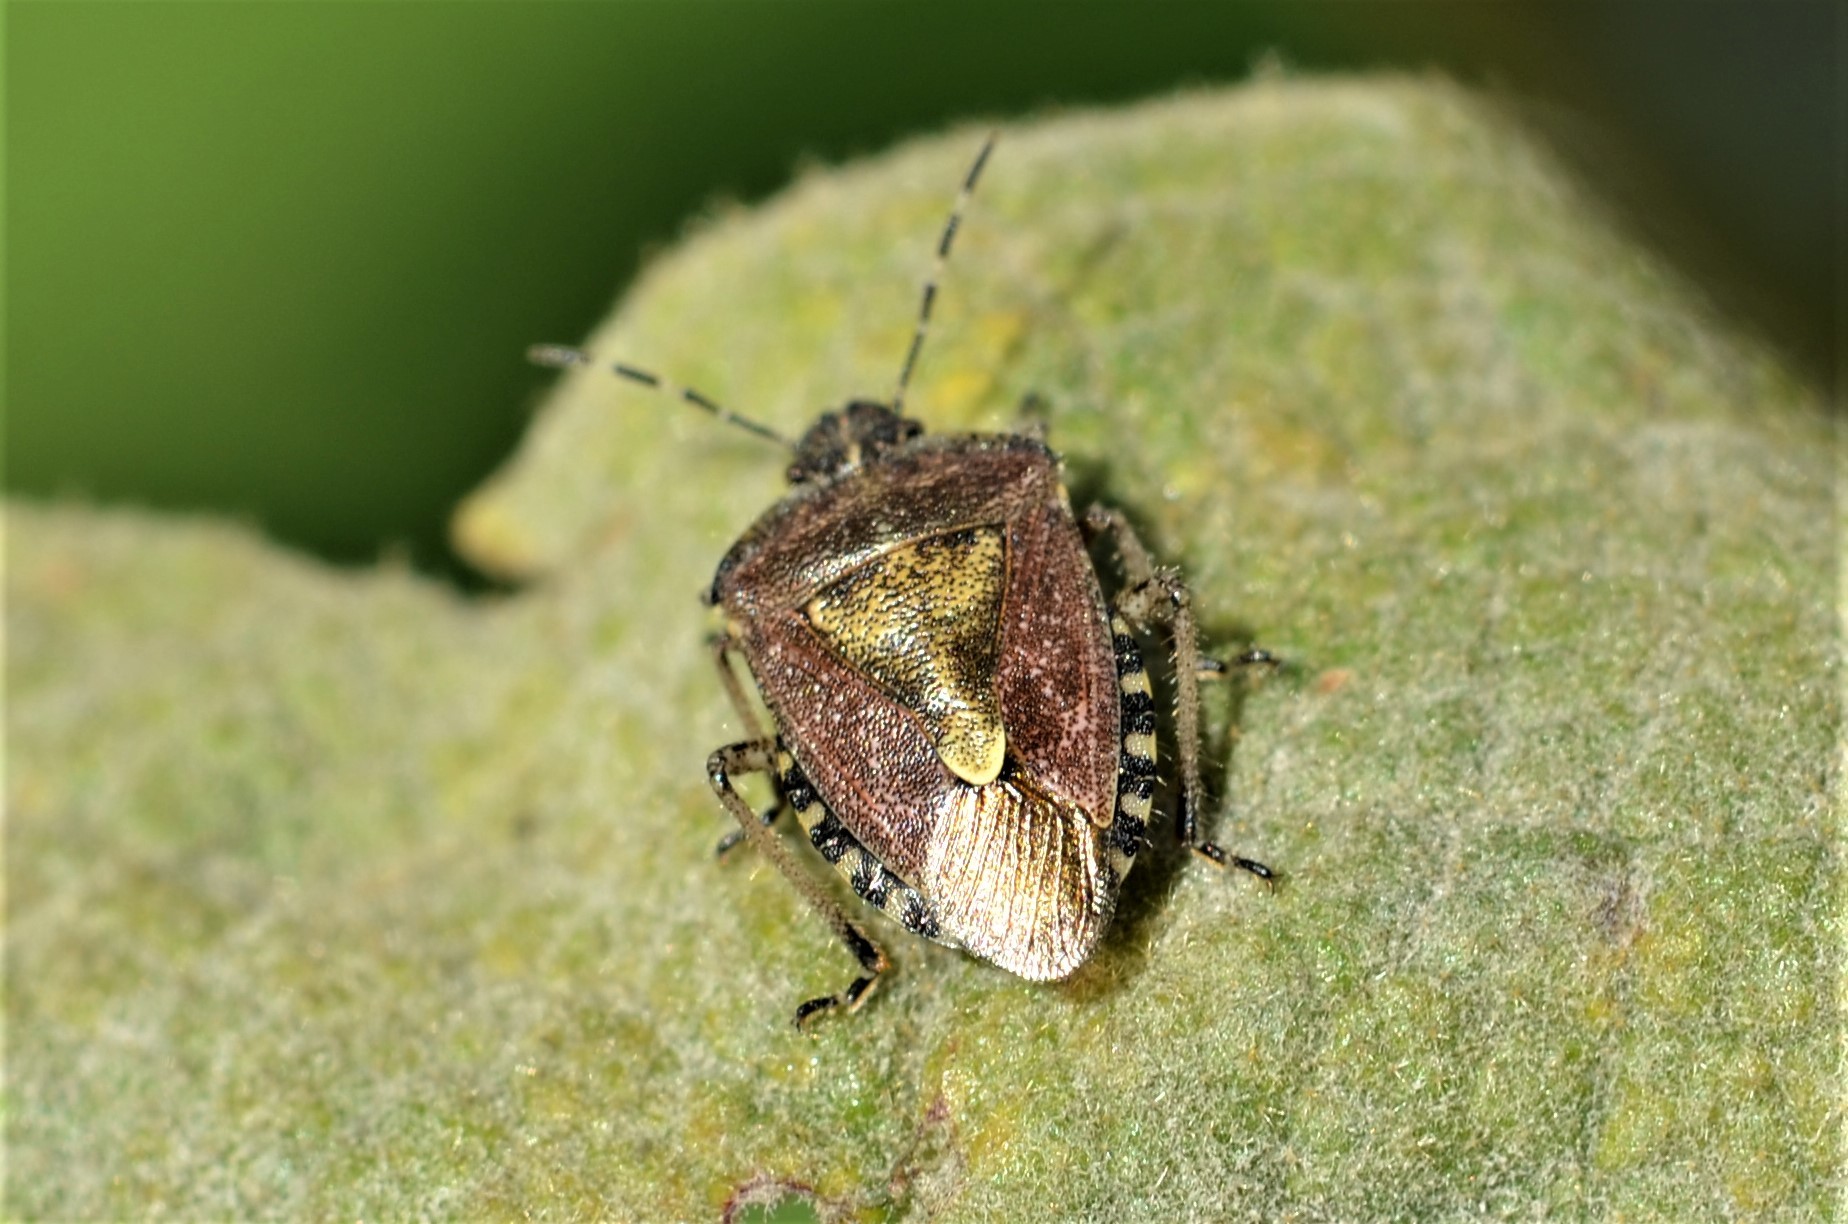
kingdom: Animalia
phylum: Arthropoda
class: Insecta
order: Hemiptera
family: Pentatomidae
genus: Dolycoris
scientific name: Dolycoris baccarum
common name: Sloe bug
